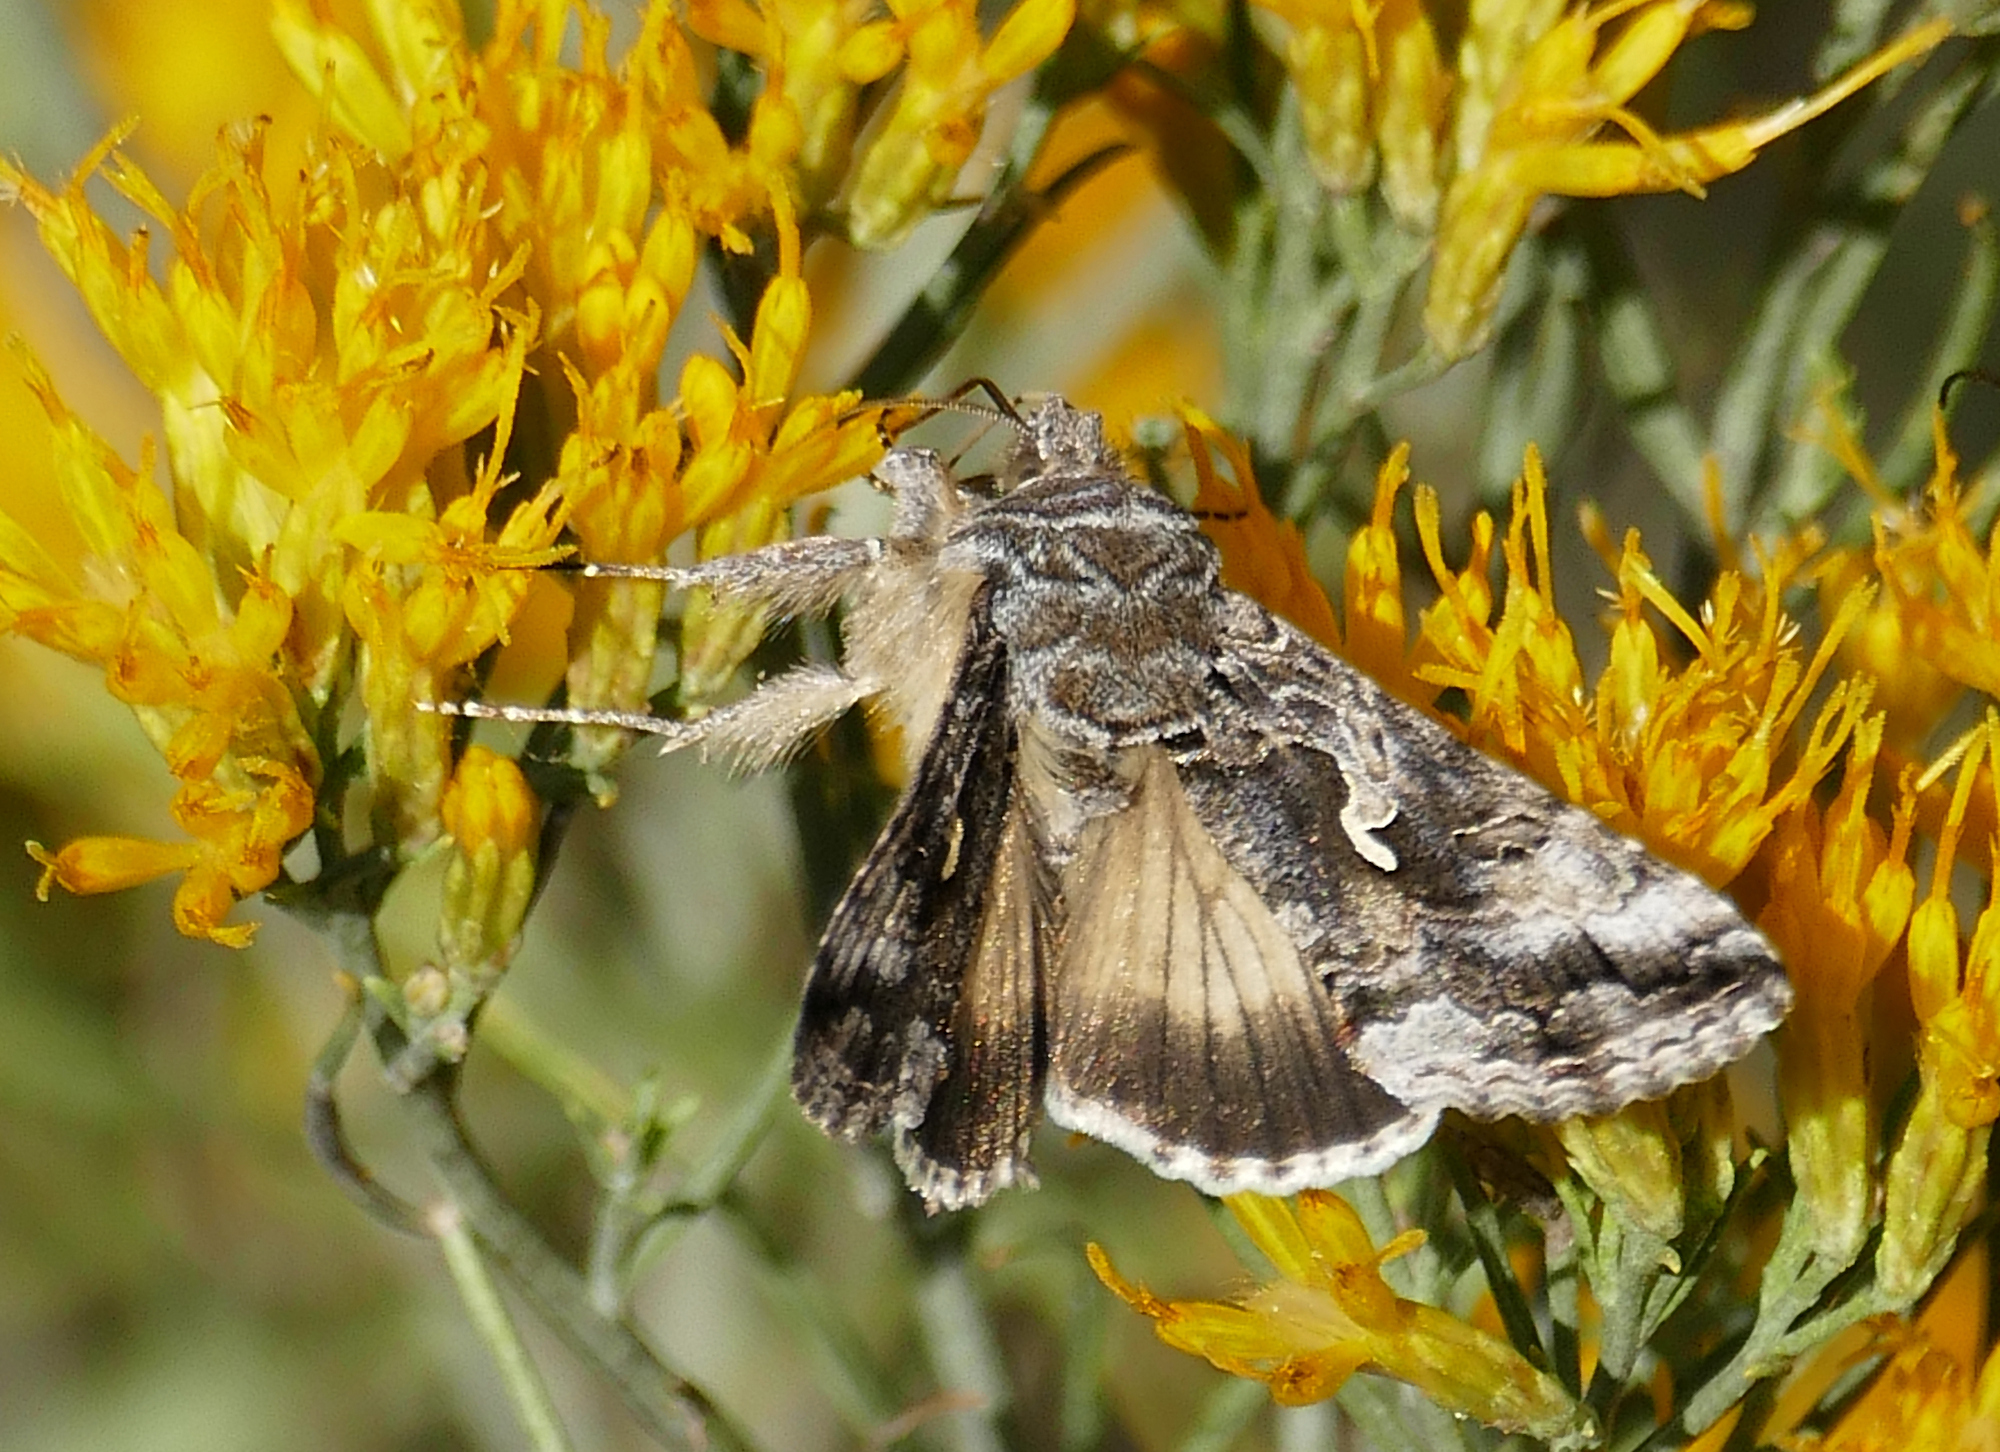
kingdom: Animalia
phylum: Arthropoda
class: Insecta
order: Lepidoptera
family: Noctuidae
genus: Autographa
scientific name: Autographa californica
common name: Alfalfa looper
